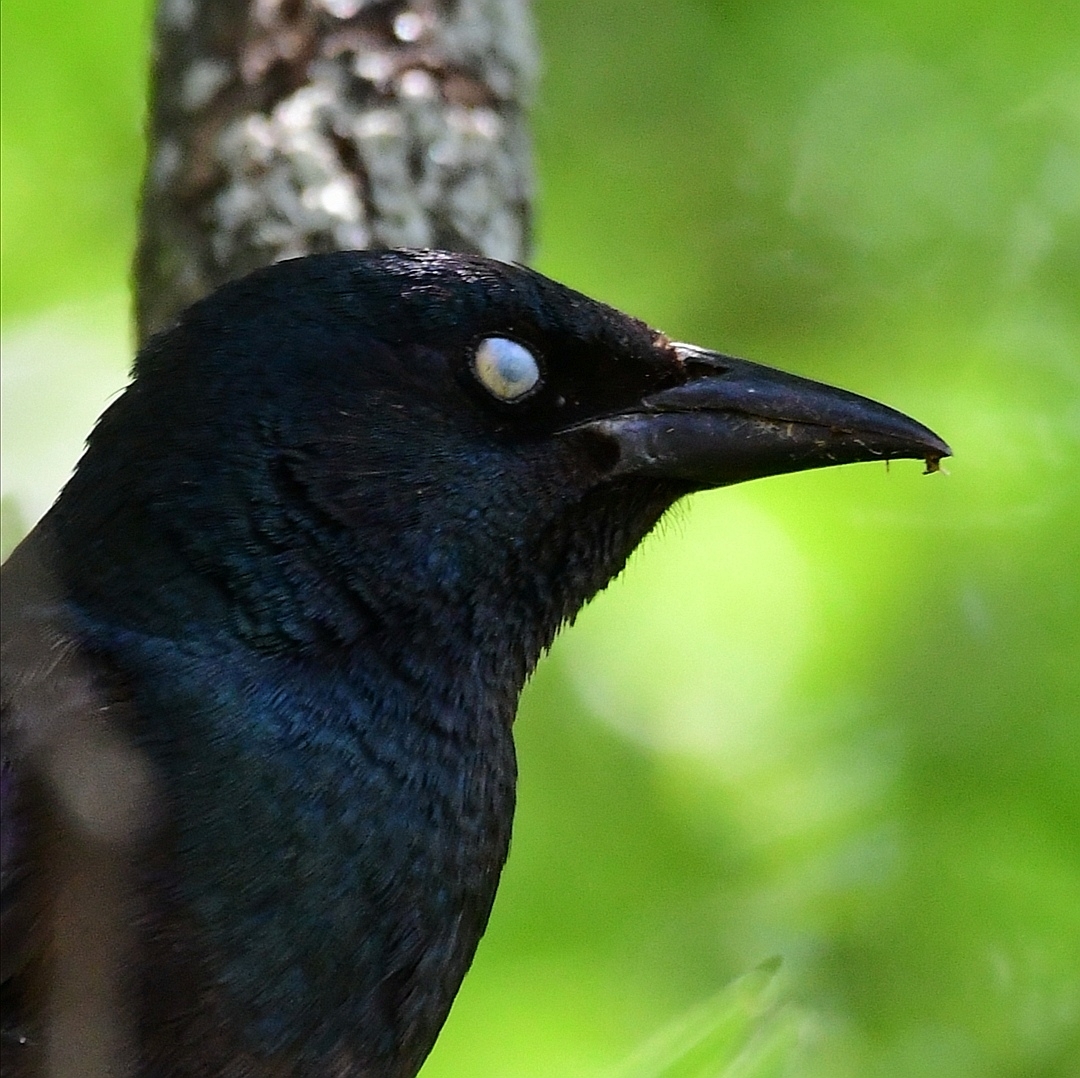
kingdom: Animalia
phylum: Chordata
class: Aves
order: Passeriformes
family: Icteridae
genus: Quiscalus
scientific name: Quiscalus quiscula
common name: Common grackle
